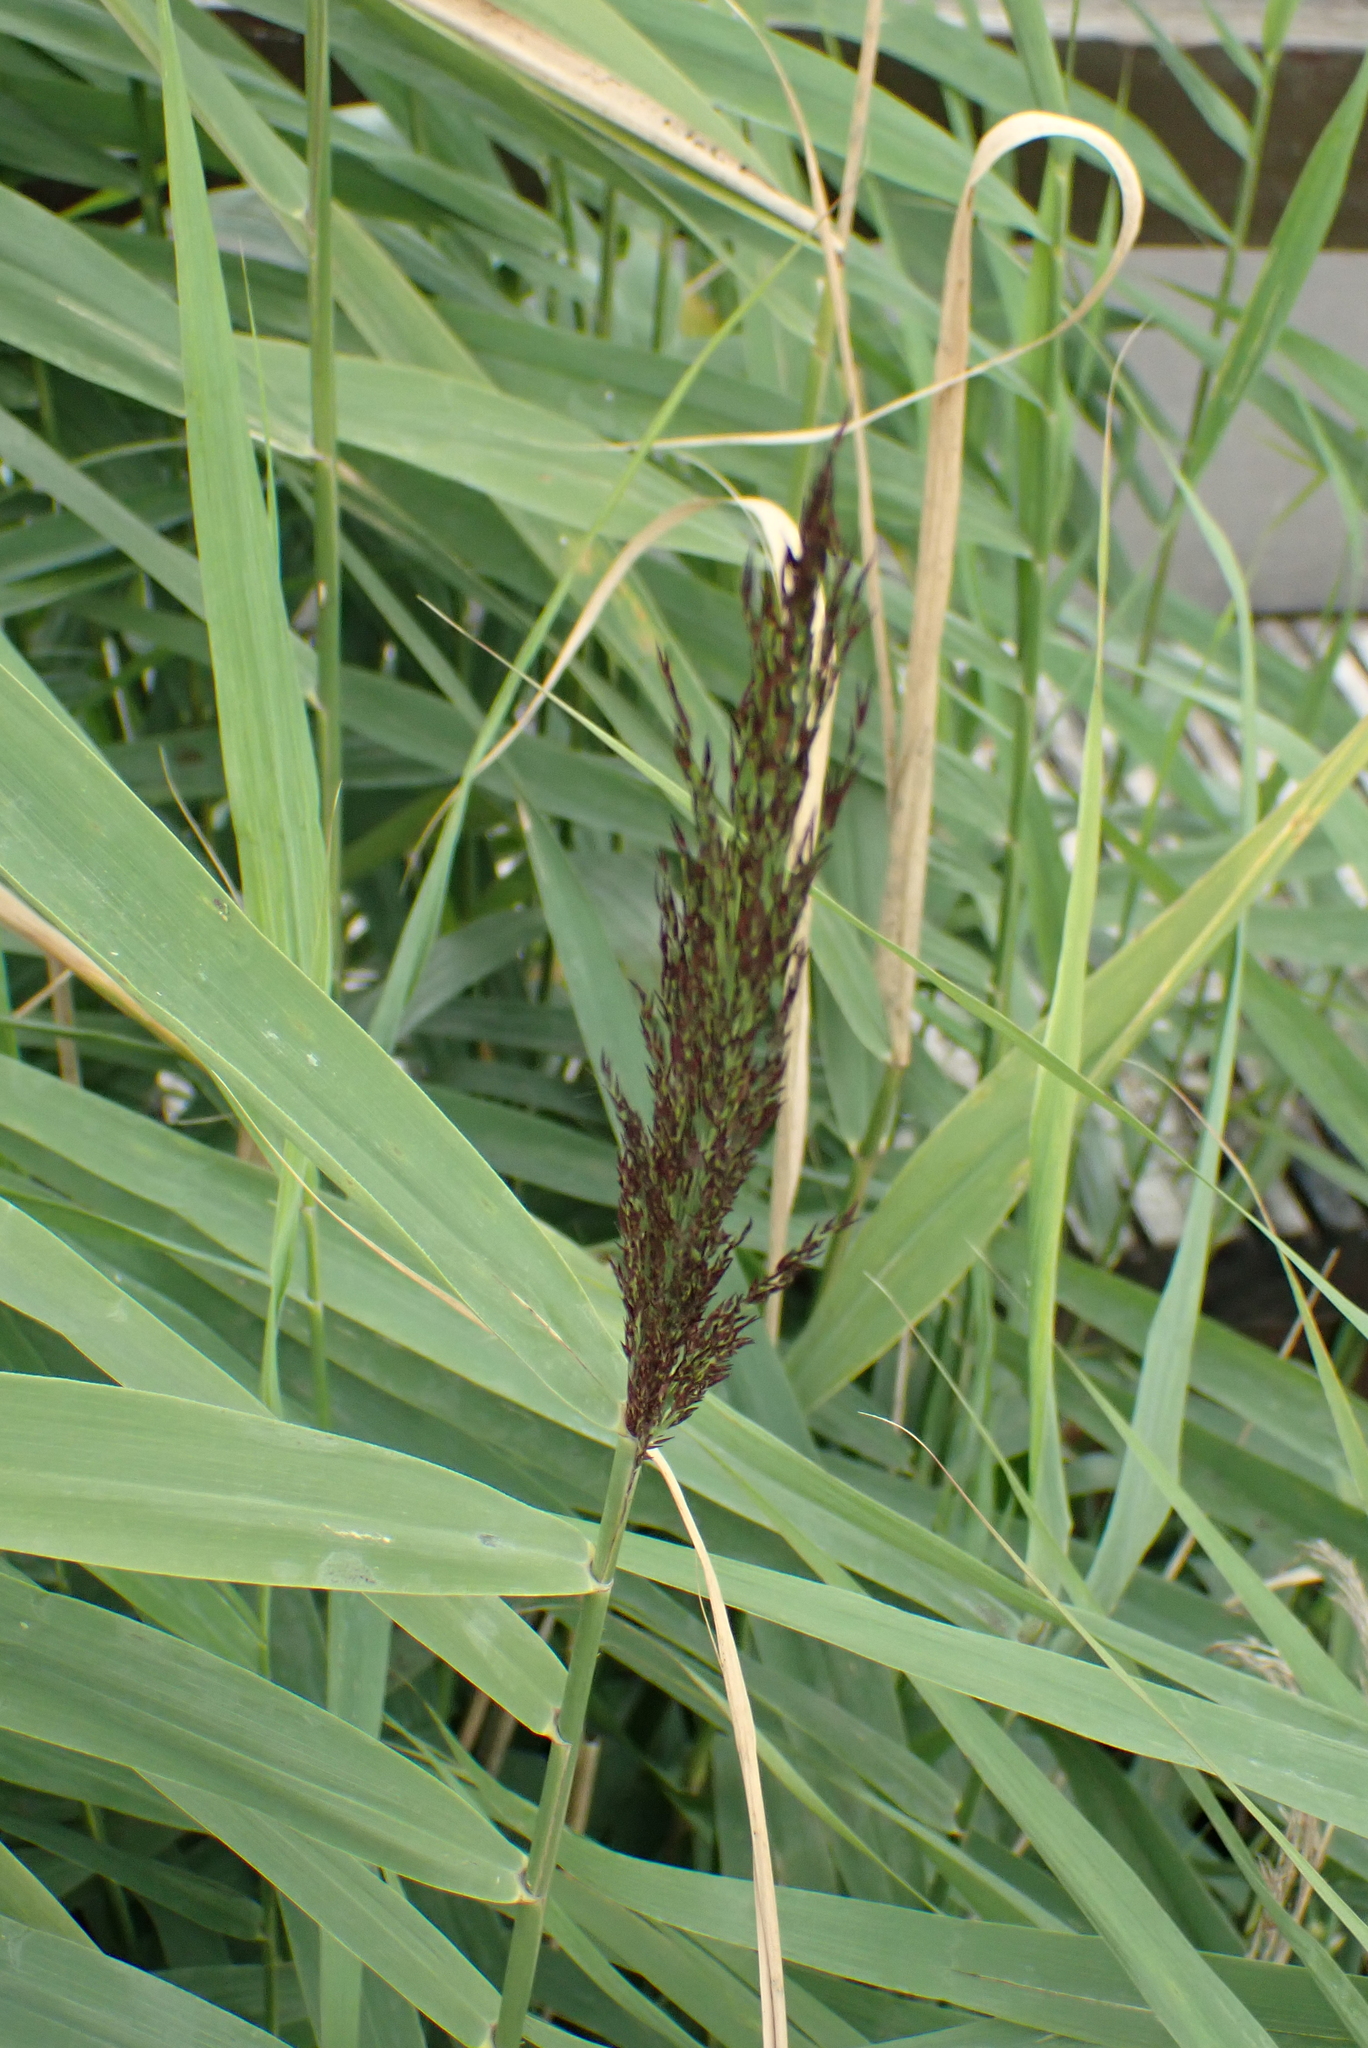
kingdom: Plantae
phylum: Tracheophyta
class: Liliopsida
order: Poales
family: Poaceae
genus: Phragmites
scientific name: Phragmites australis
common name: Common reed
